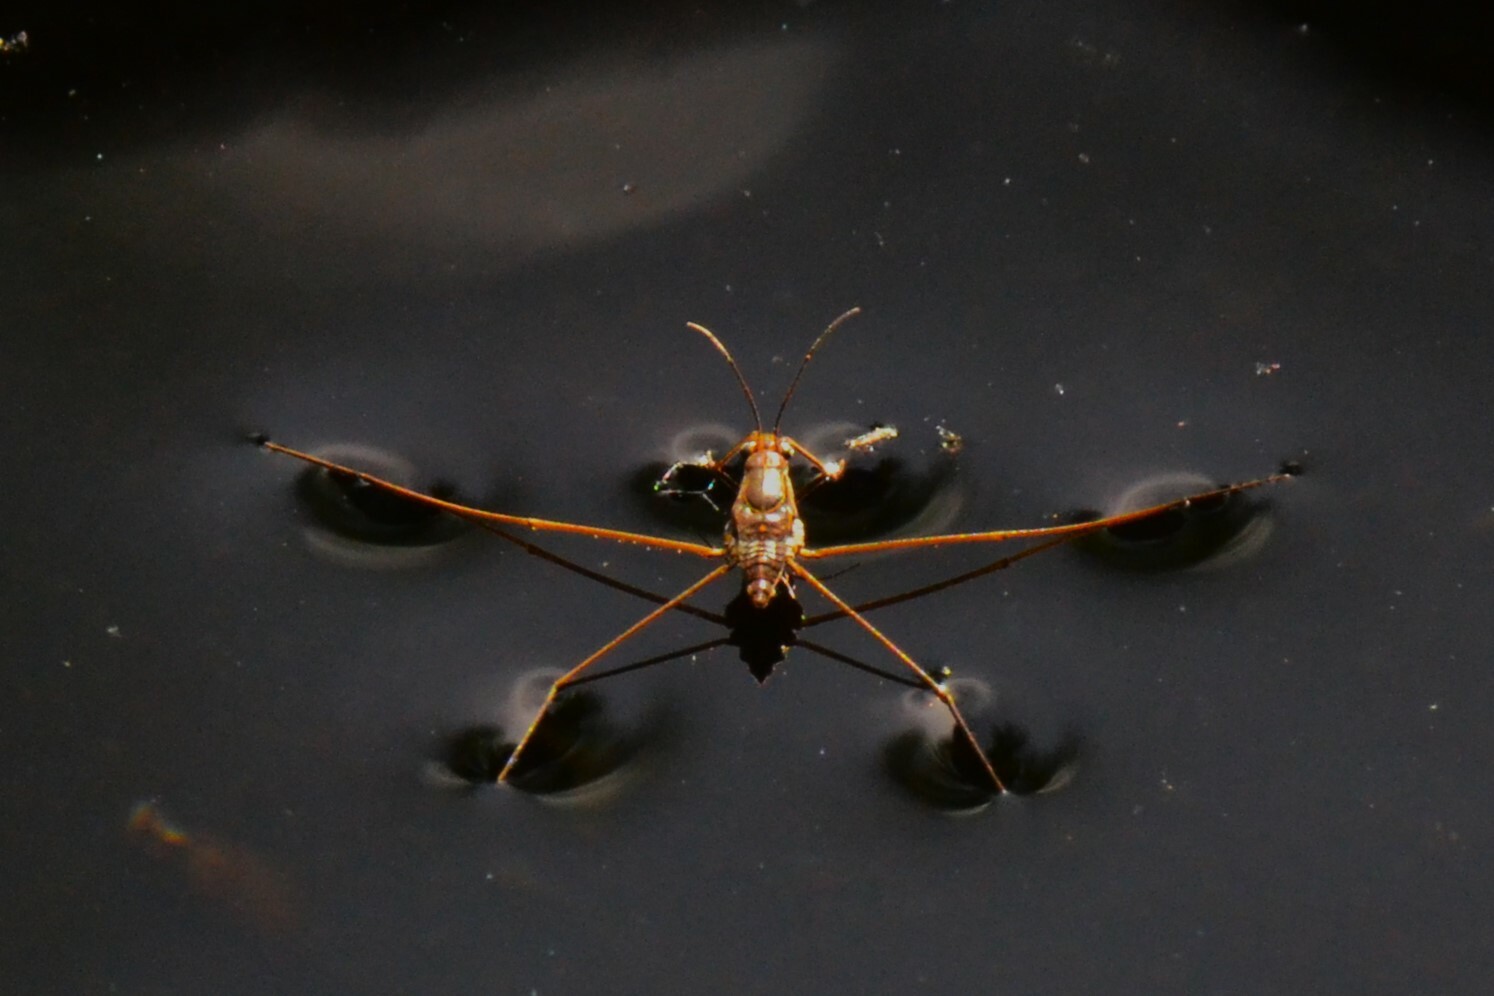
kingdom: Animalia
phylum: Arthropoda
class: Insecta
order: Hemiptera
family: Gerridae
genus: Limnogonus
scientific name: Limnogonus fossarum
